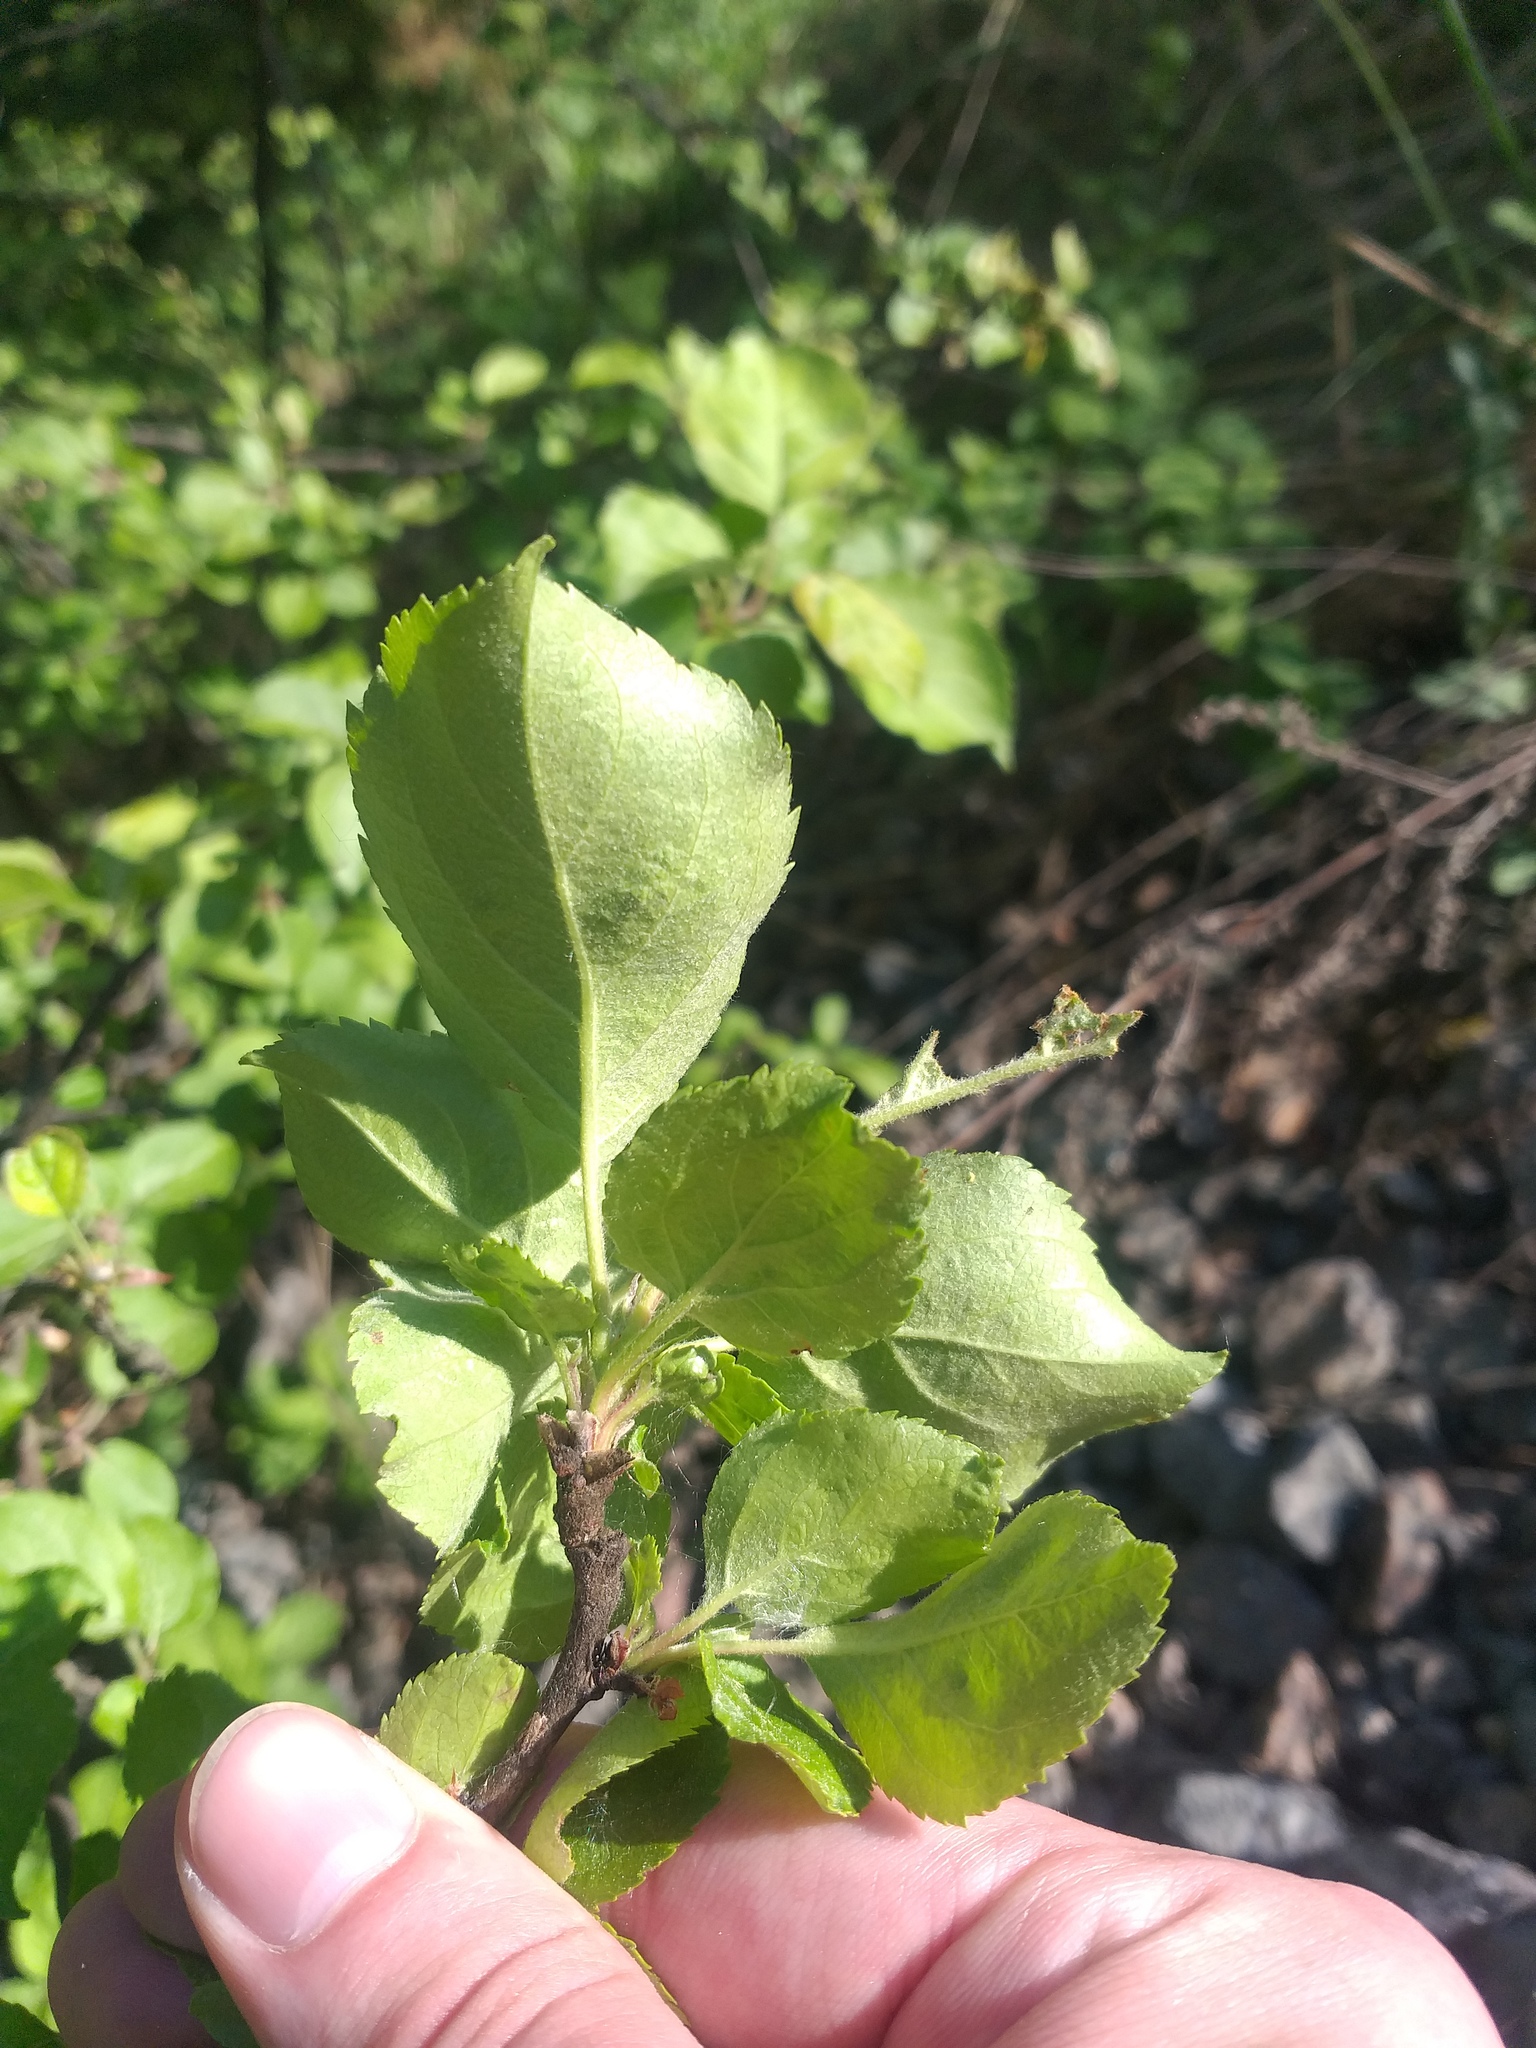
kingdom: Plantae
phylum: Tracheophyta
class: Magnoliopsida
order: Rosales
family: Rosaceae
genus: Malus
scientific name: Malus domestica
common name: Apple
